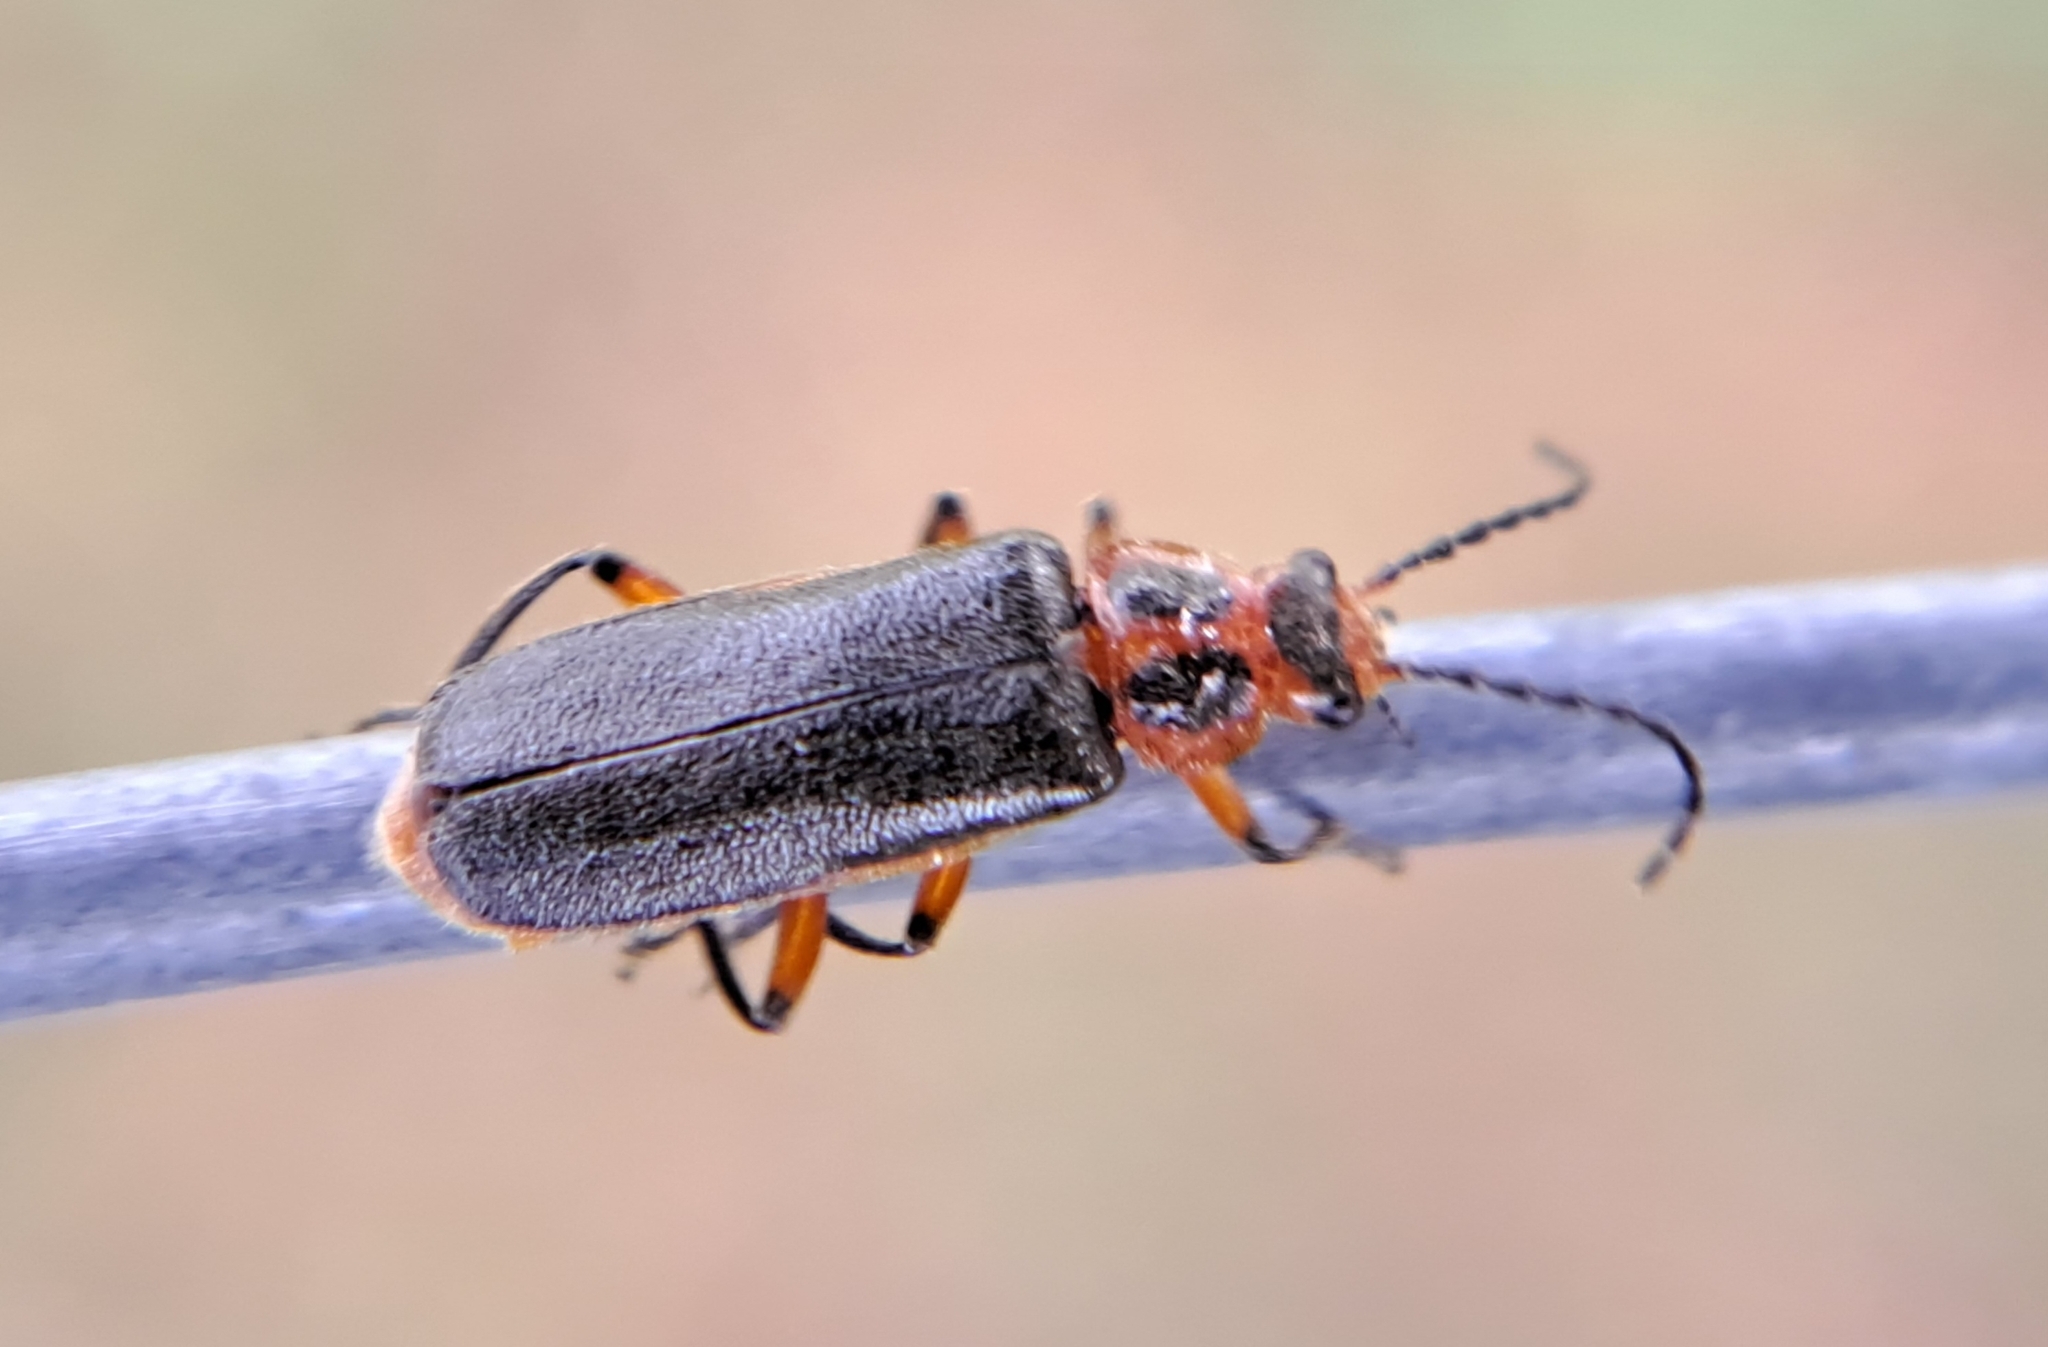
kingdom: Animalia
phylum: Arthropoda
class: Insecta
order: Coleoptera
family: Cantharidae
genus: Atalantycha
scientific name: Atalantycha bilineata
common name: Two-lined leatherwing
